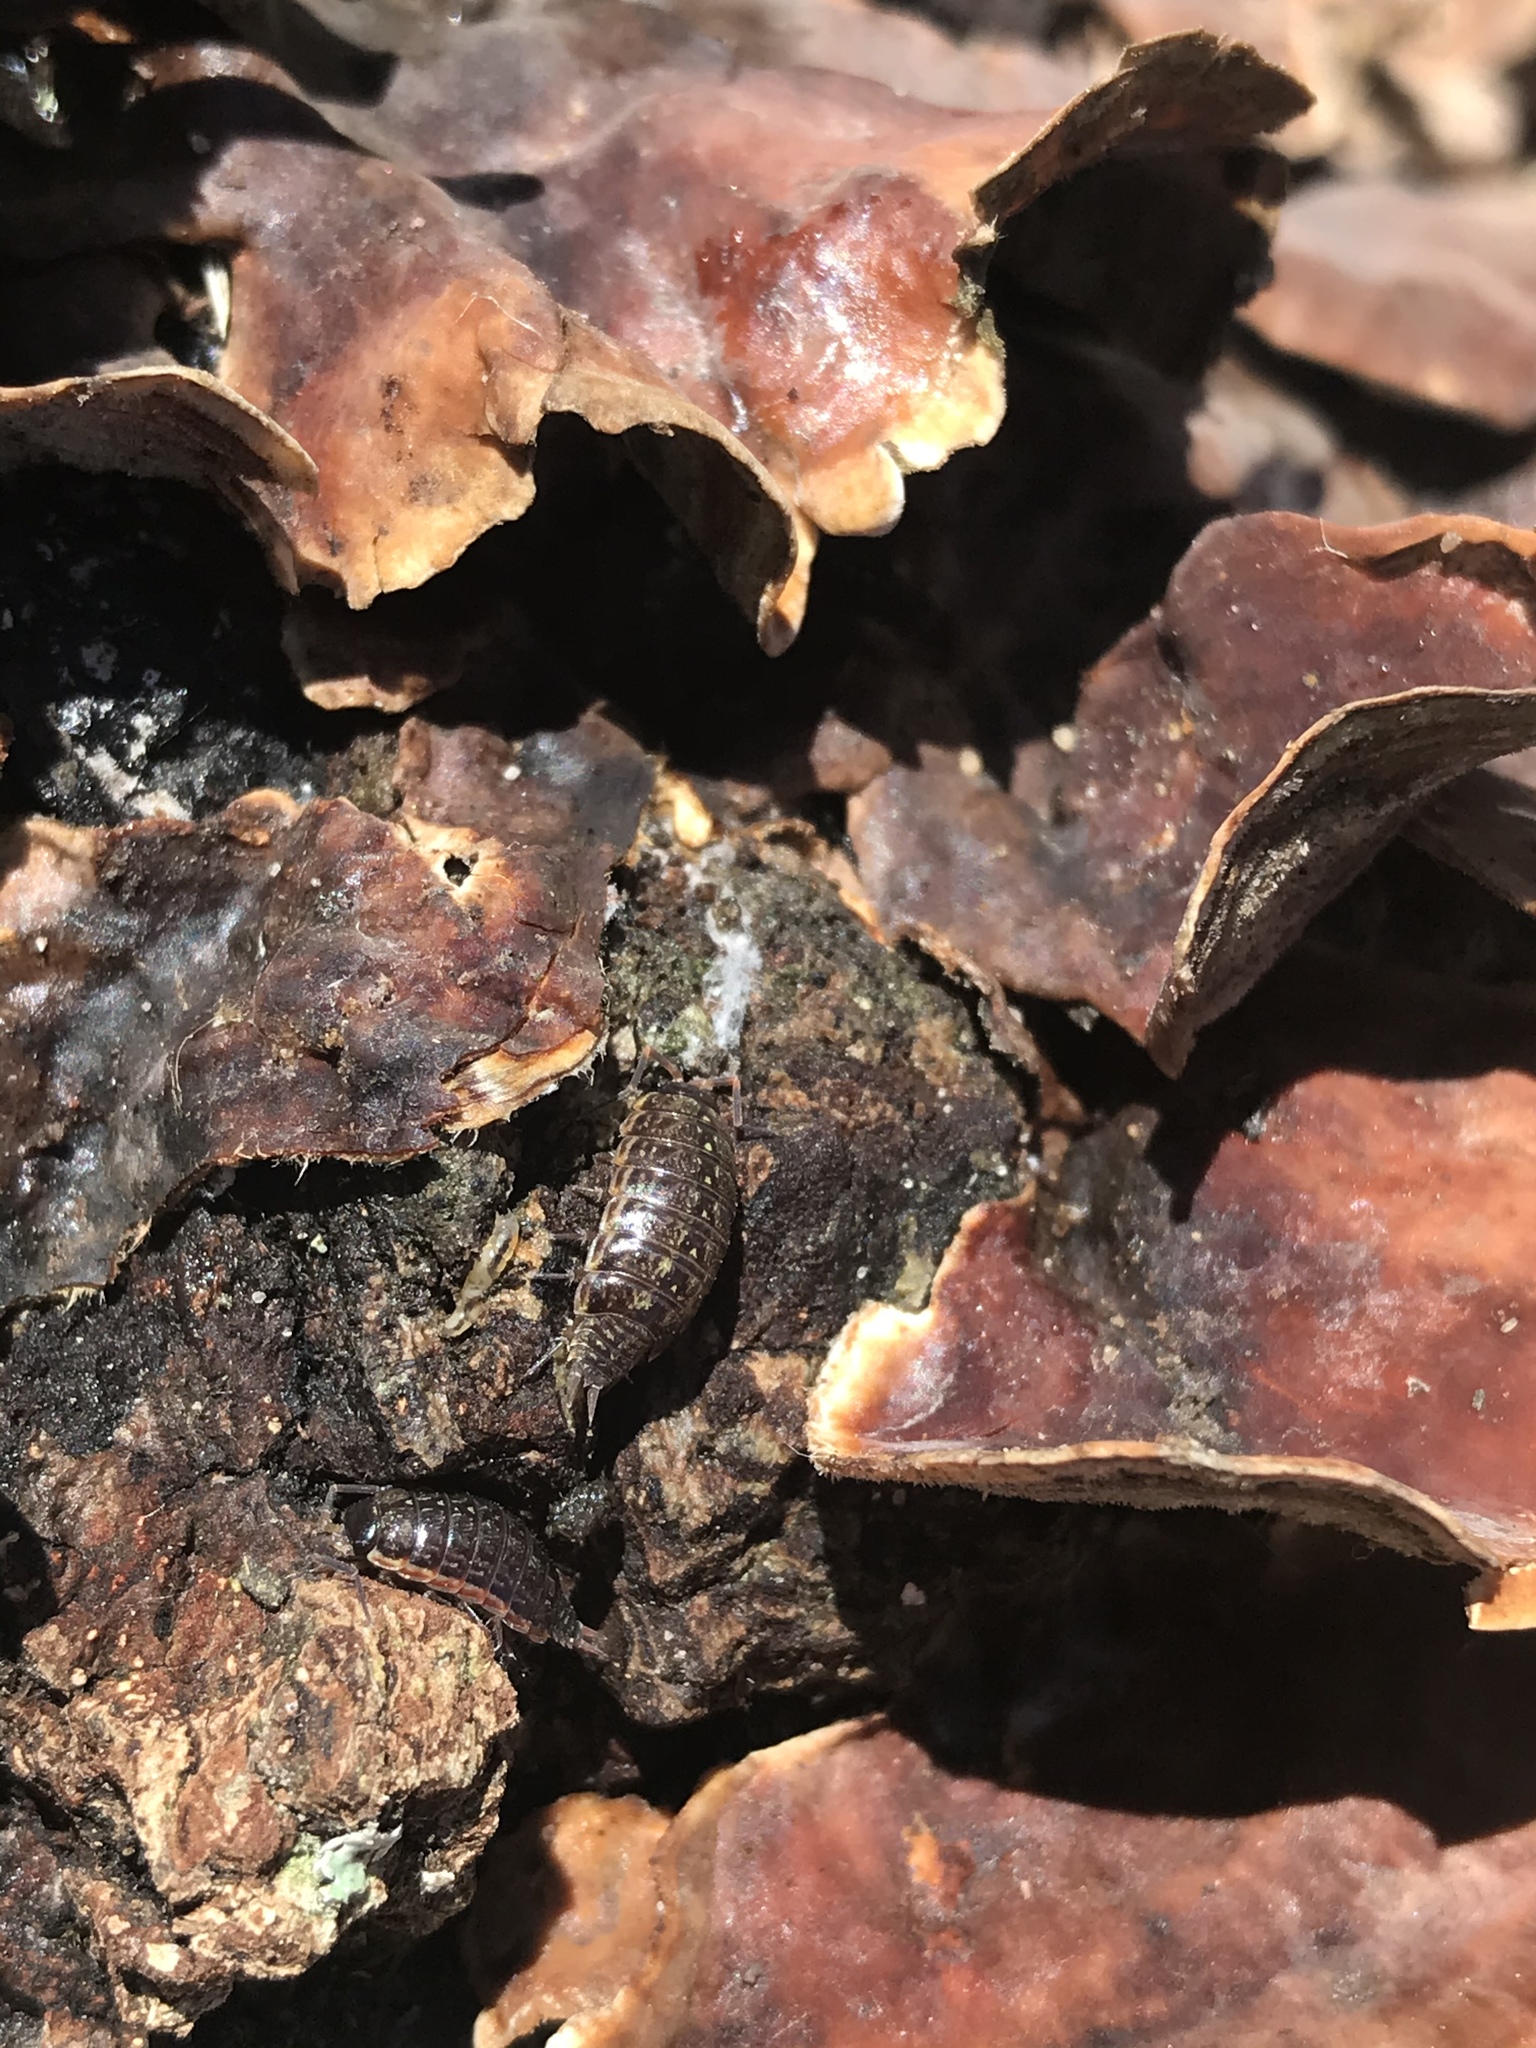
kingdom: Animalia
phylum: Arthropoda
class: Malacostraca
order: Isopoda
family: Philosciidae
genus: Philoscia
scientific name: Philoscia muscorum
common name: Common striped woodlouse
